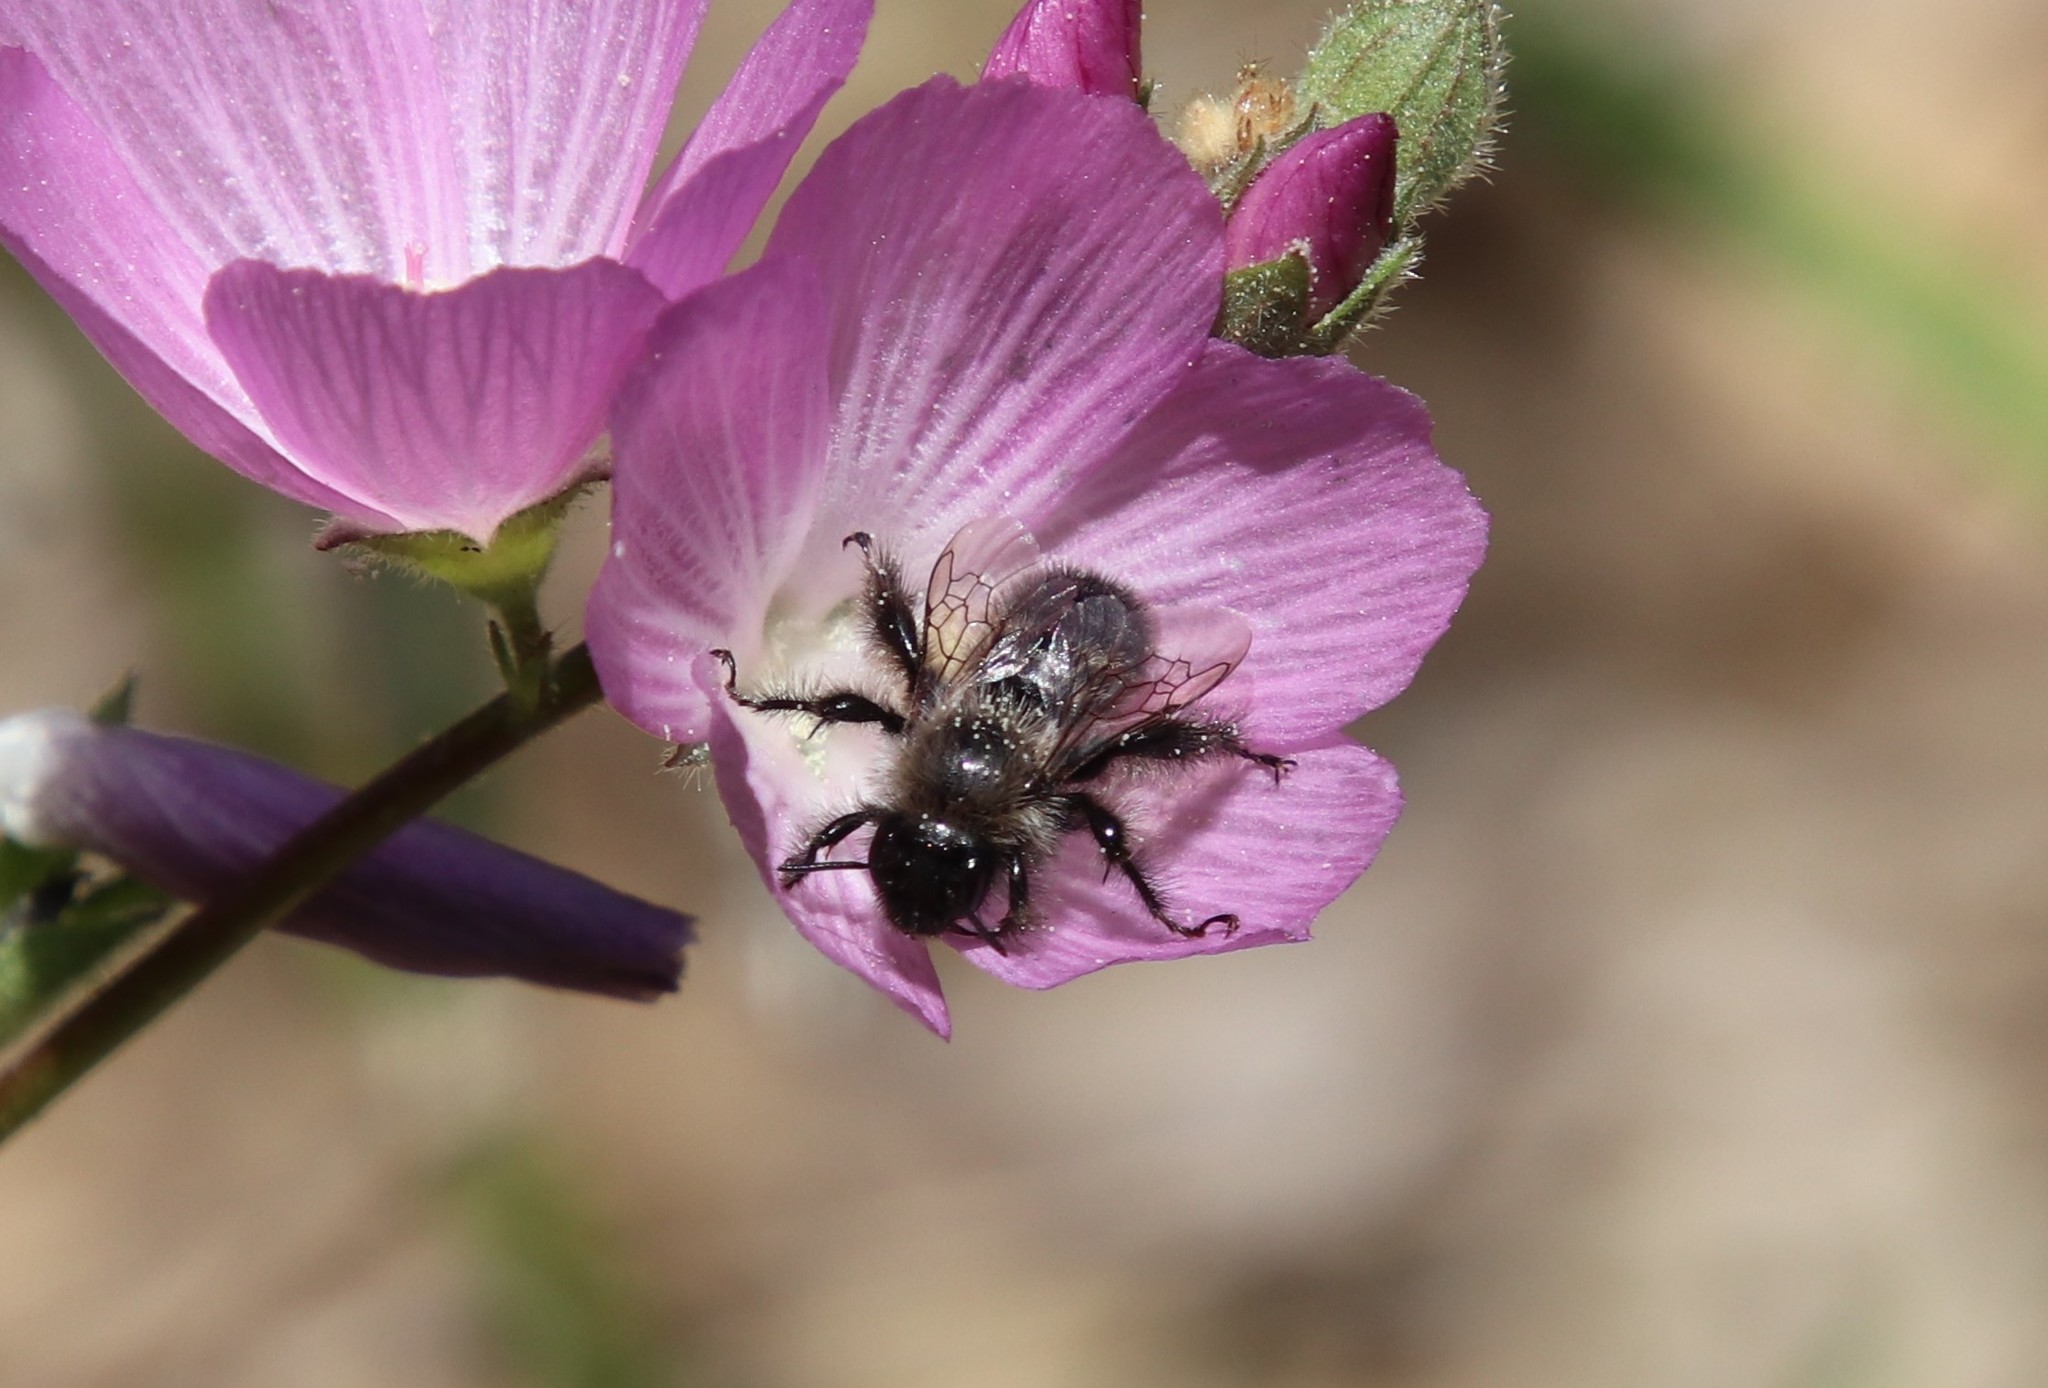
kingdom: Animalia
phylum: Arthropoda
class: Insecta
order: Hymenoptera
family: Apidae
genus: Diadasia
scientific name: Diadasia nigrifrons
